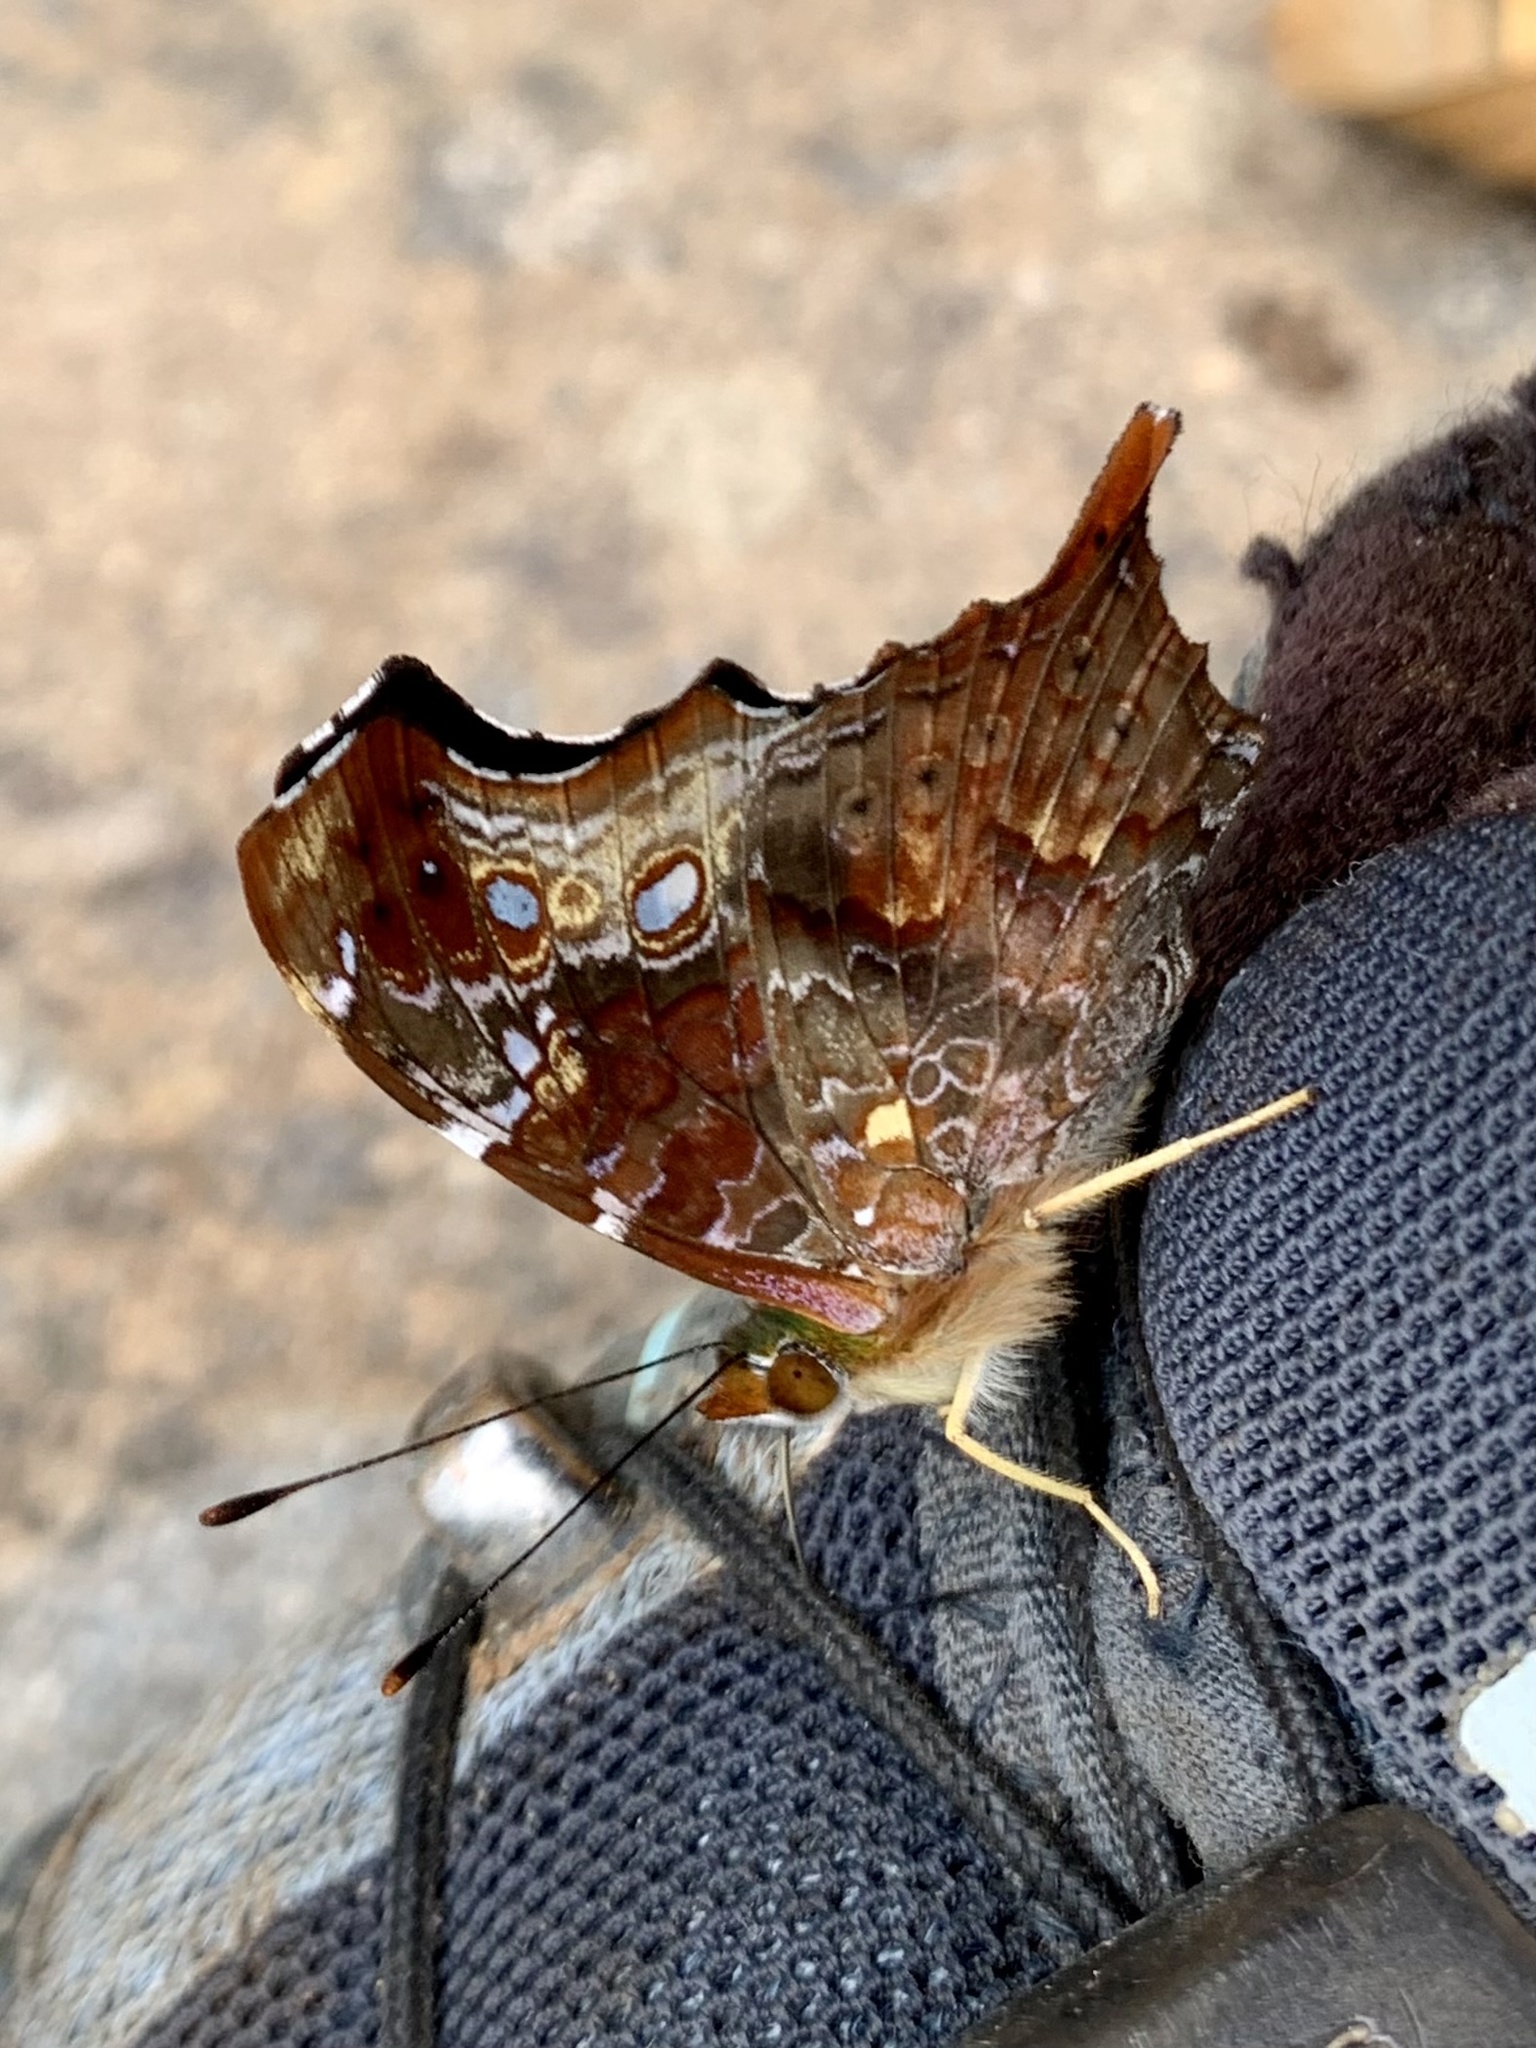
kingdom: Animalia
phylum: Arthropoda
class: Insecta
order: Lepidoptera
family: Nymphalidae
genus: Hypanartia
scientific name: Hypanartia kefersteini
